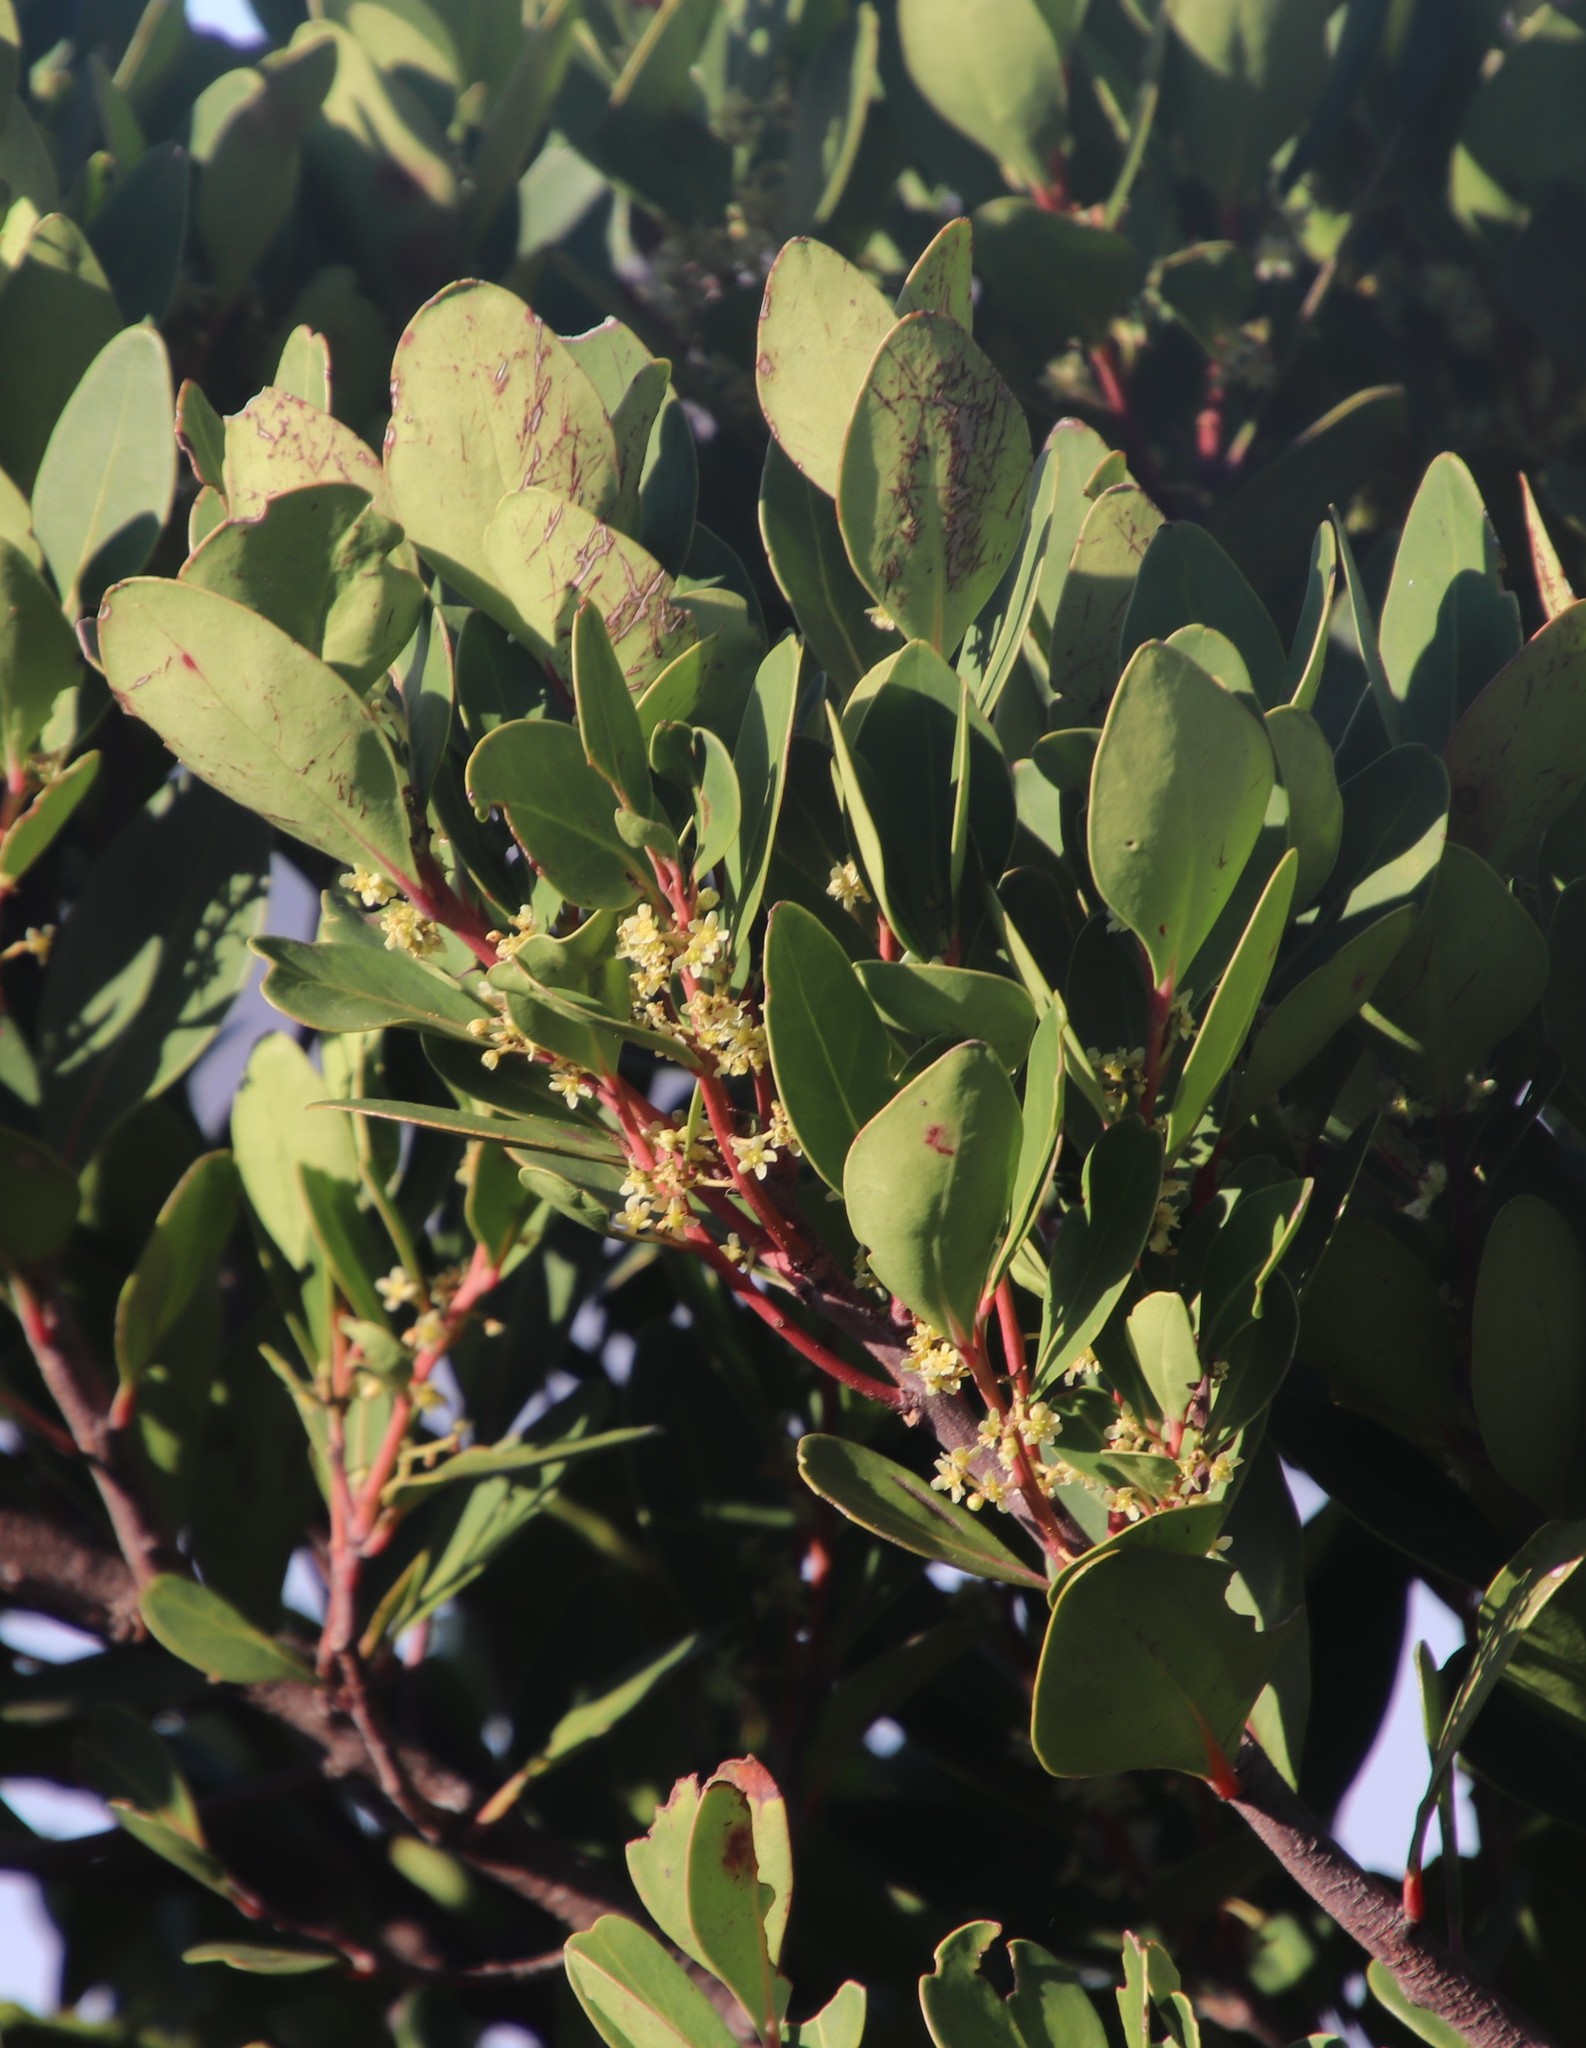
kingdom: Plantae
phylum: Tracheophyta
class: Magnoliopsida
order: Celastrales
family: Celastraceae
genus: Pterocelastrus
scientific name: Pterocelastrus tricuspidatus
